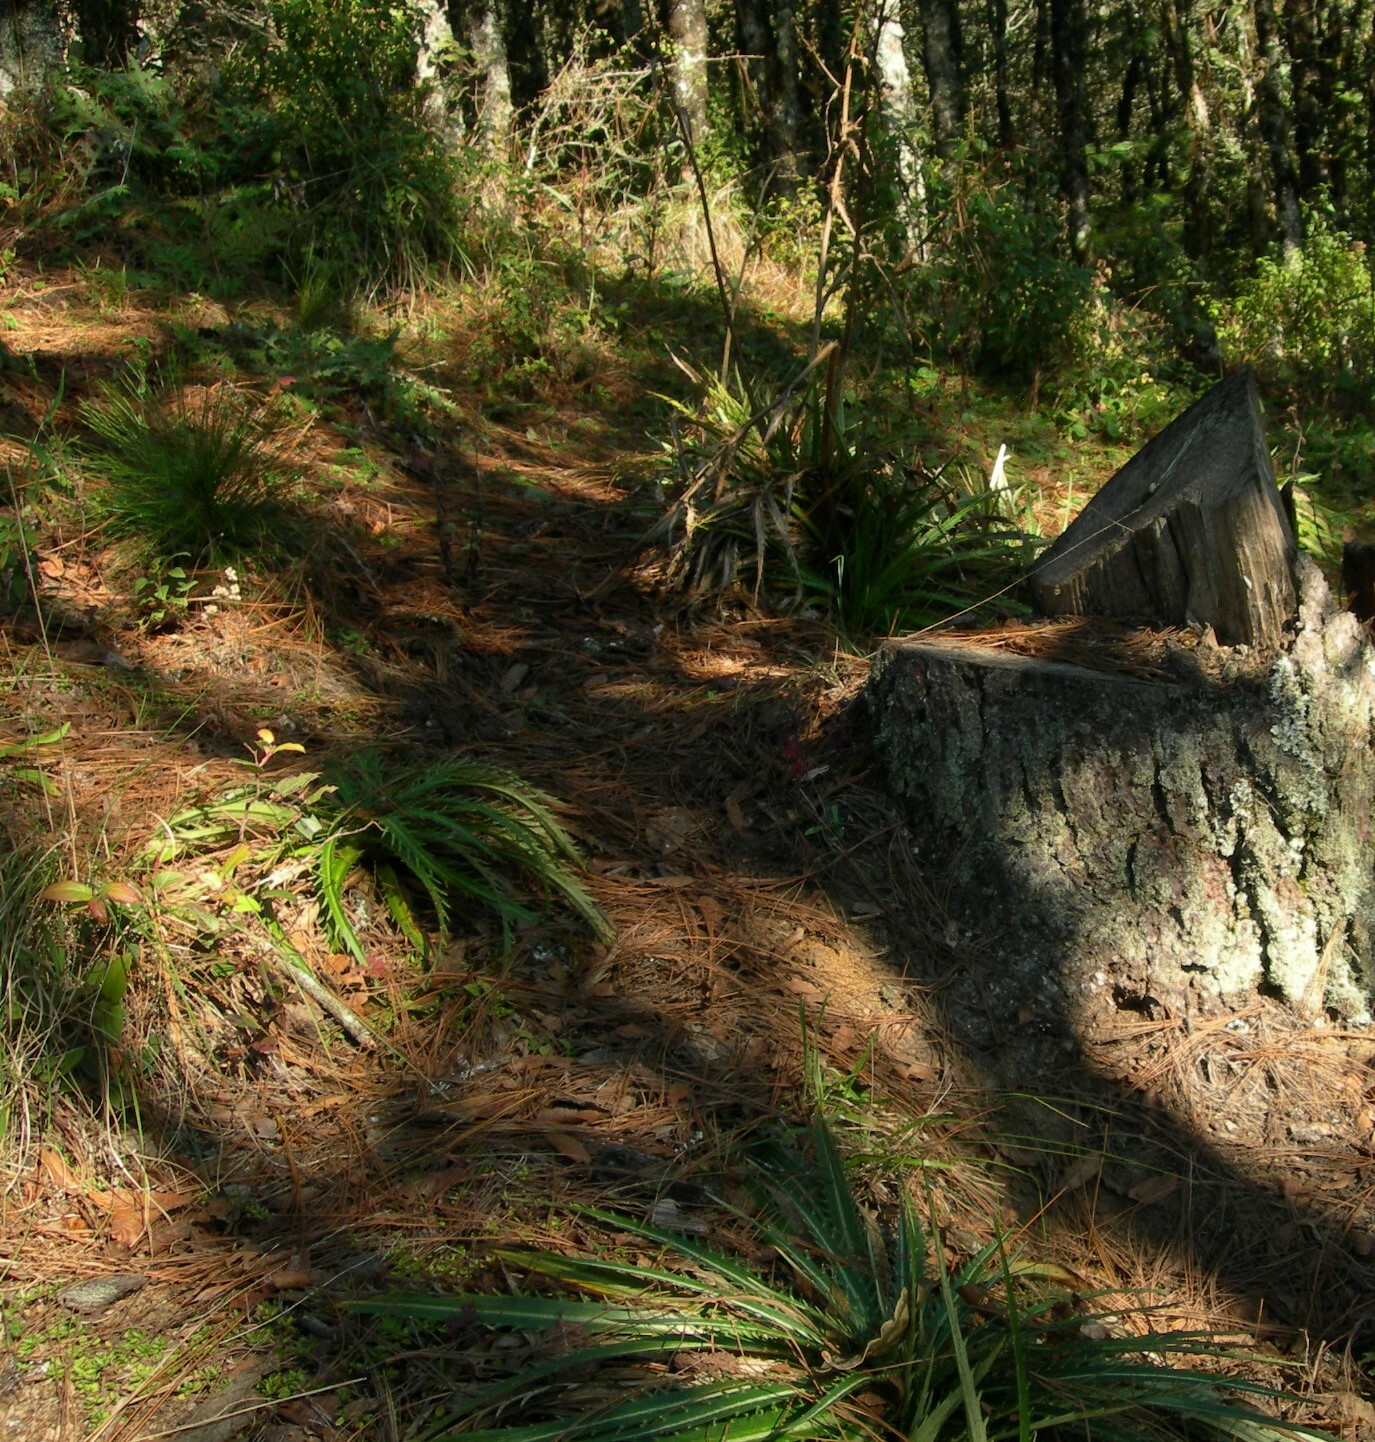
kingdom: Plantae
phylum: Tracheophyta
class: Magnoliopsida
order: Apiales
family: Apiaceae
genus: Eryngium
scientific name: Eryngium tzeltal
